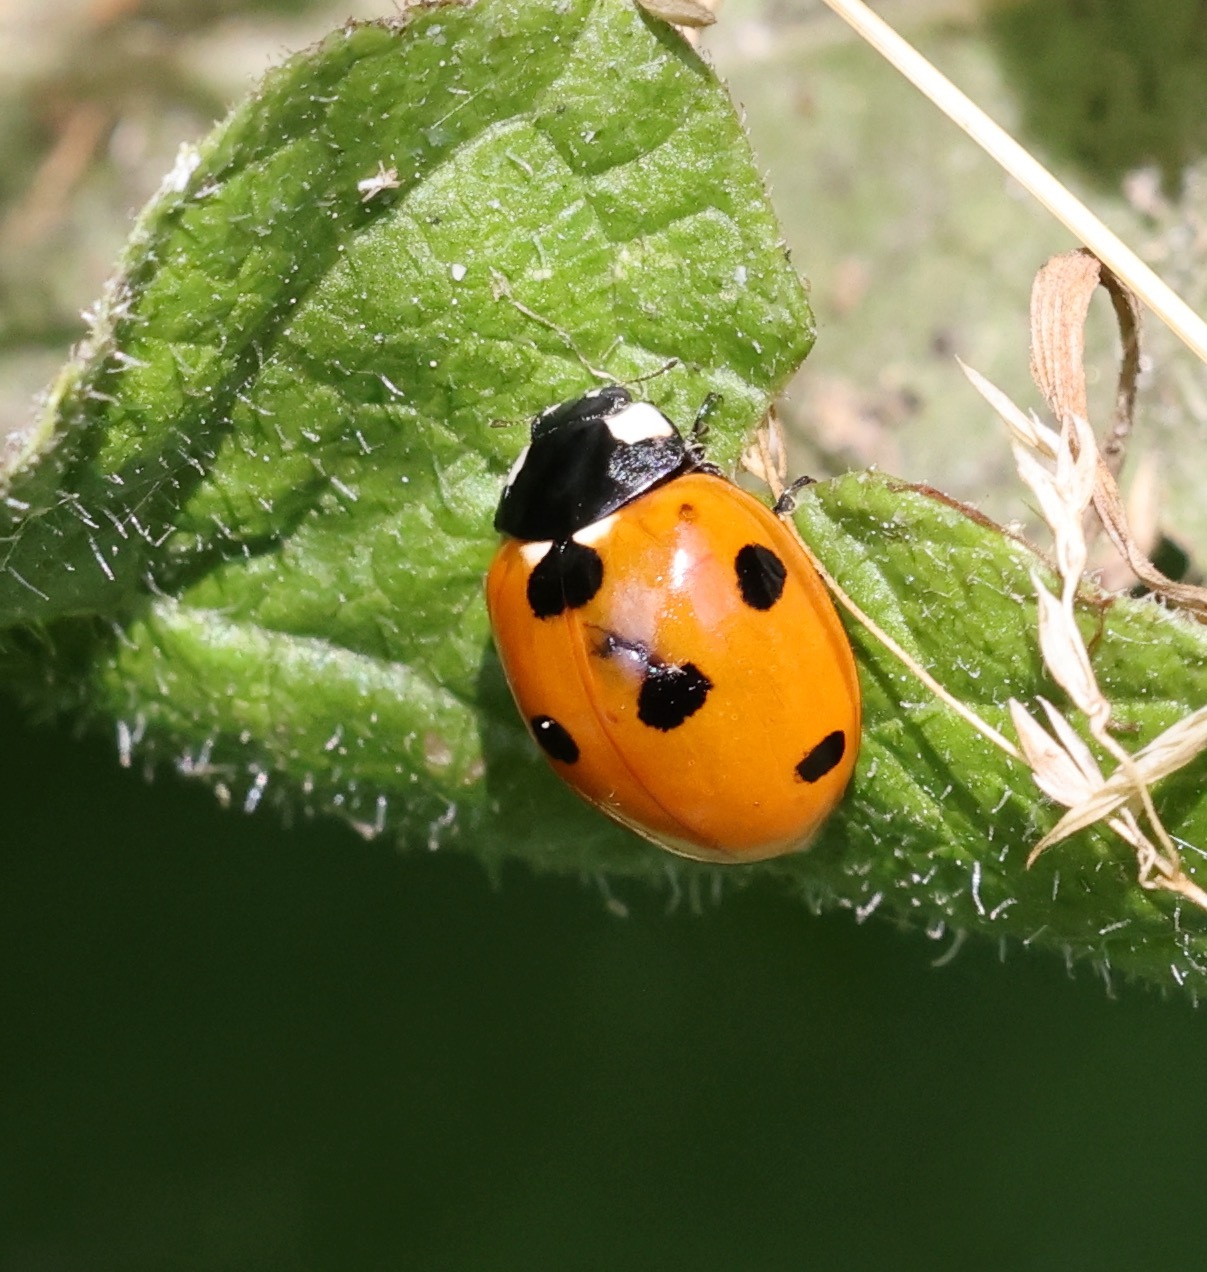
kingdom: Animalia
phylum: Arthropoda
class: Insecta
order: Coleoptera
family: Coccinellidae
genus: Coccinella
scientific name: Coccinella septempunctata
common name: Sevenspotted lady beetle
